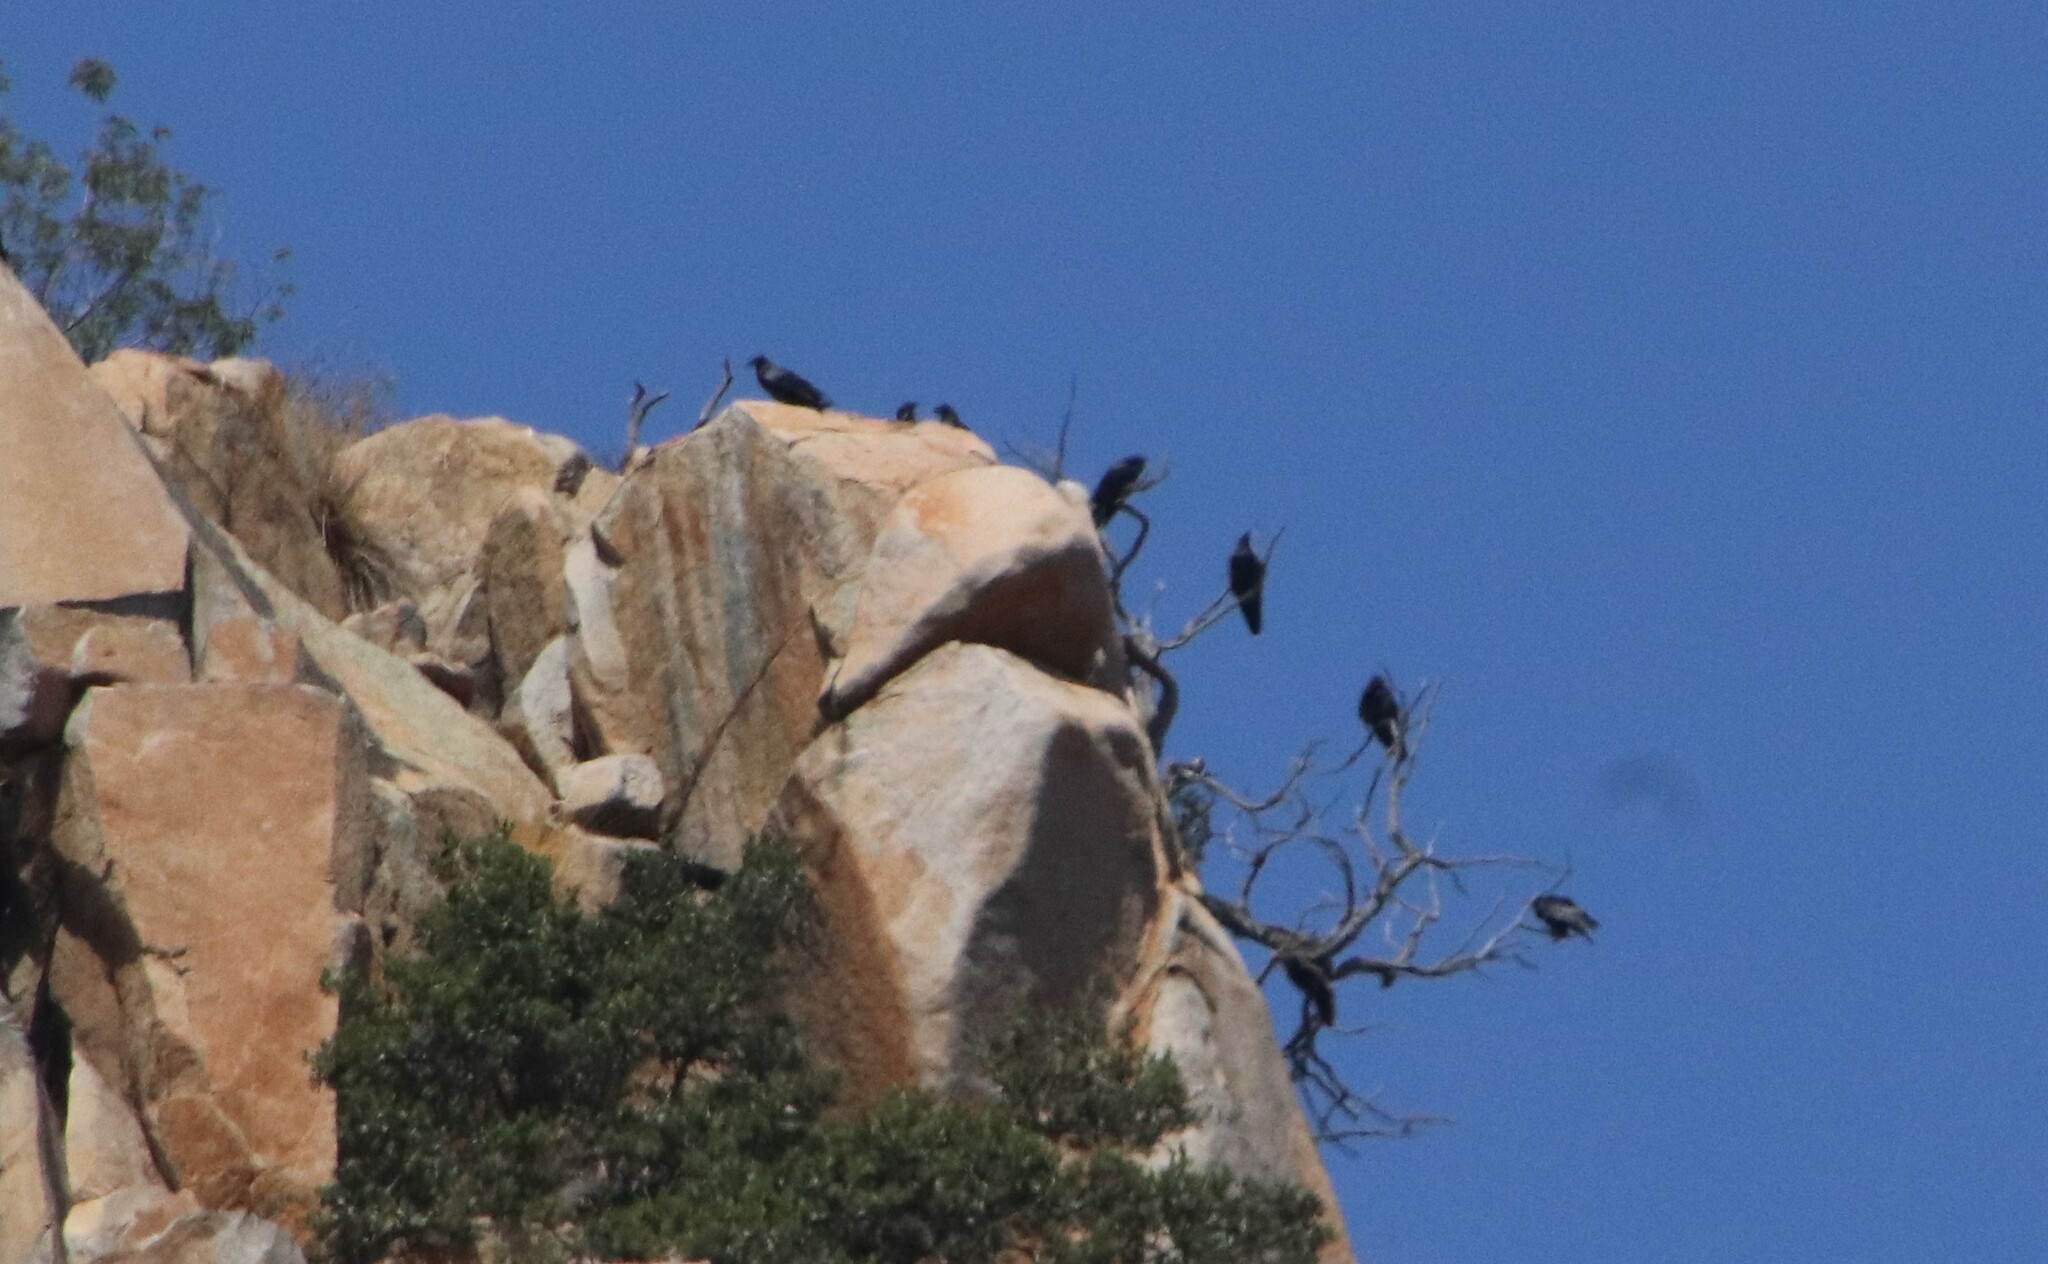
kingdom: Animalia
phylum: Chordata
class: Aves
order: Passeriformes
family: Corvidae
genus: Corvus
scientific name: Corvus corax
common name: Common raven
